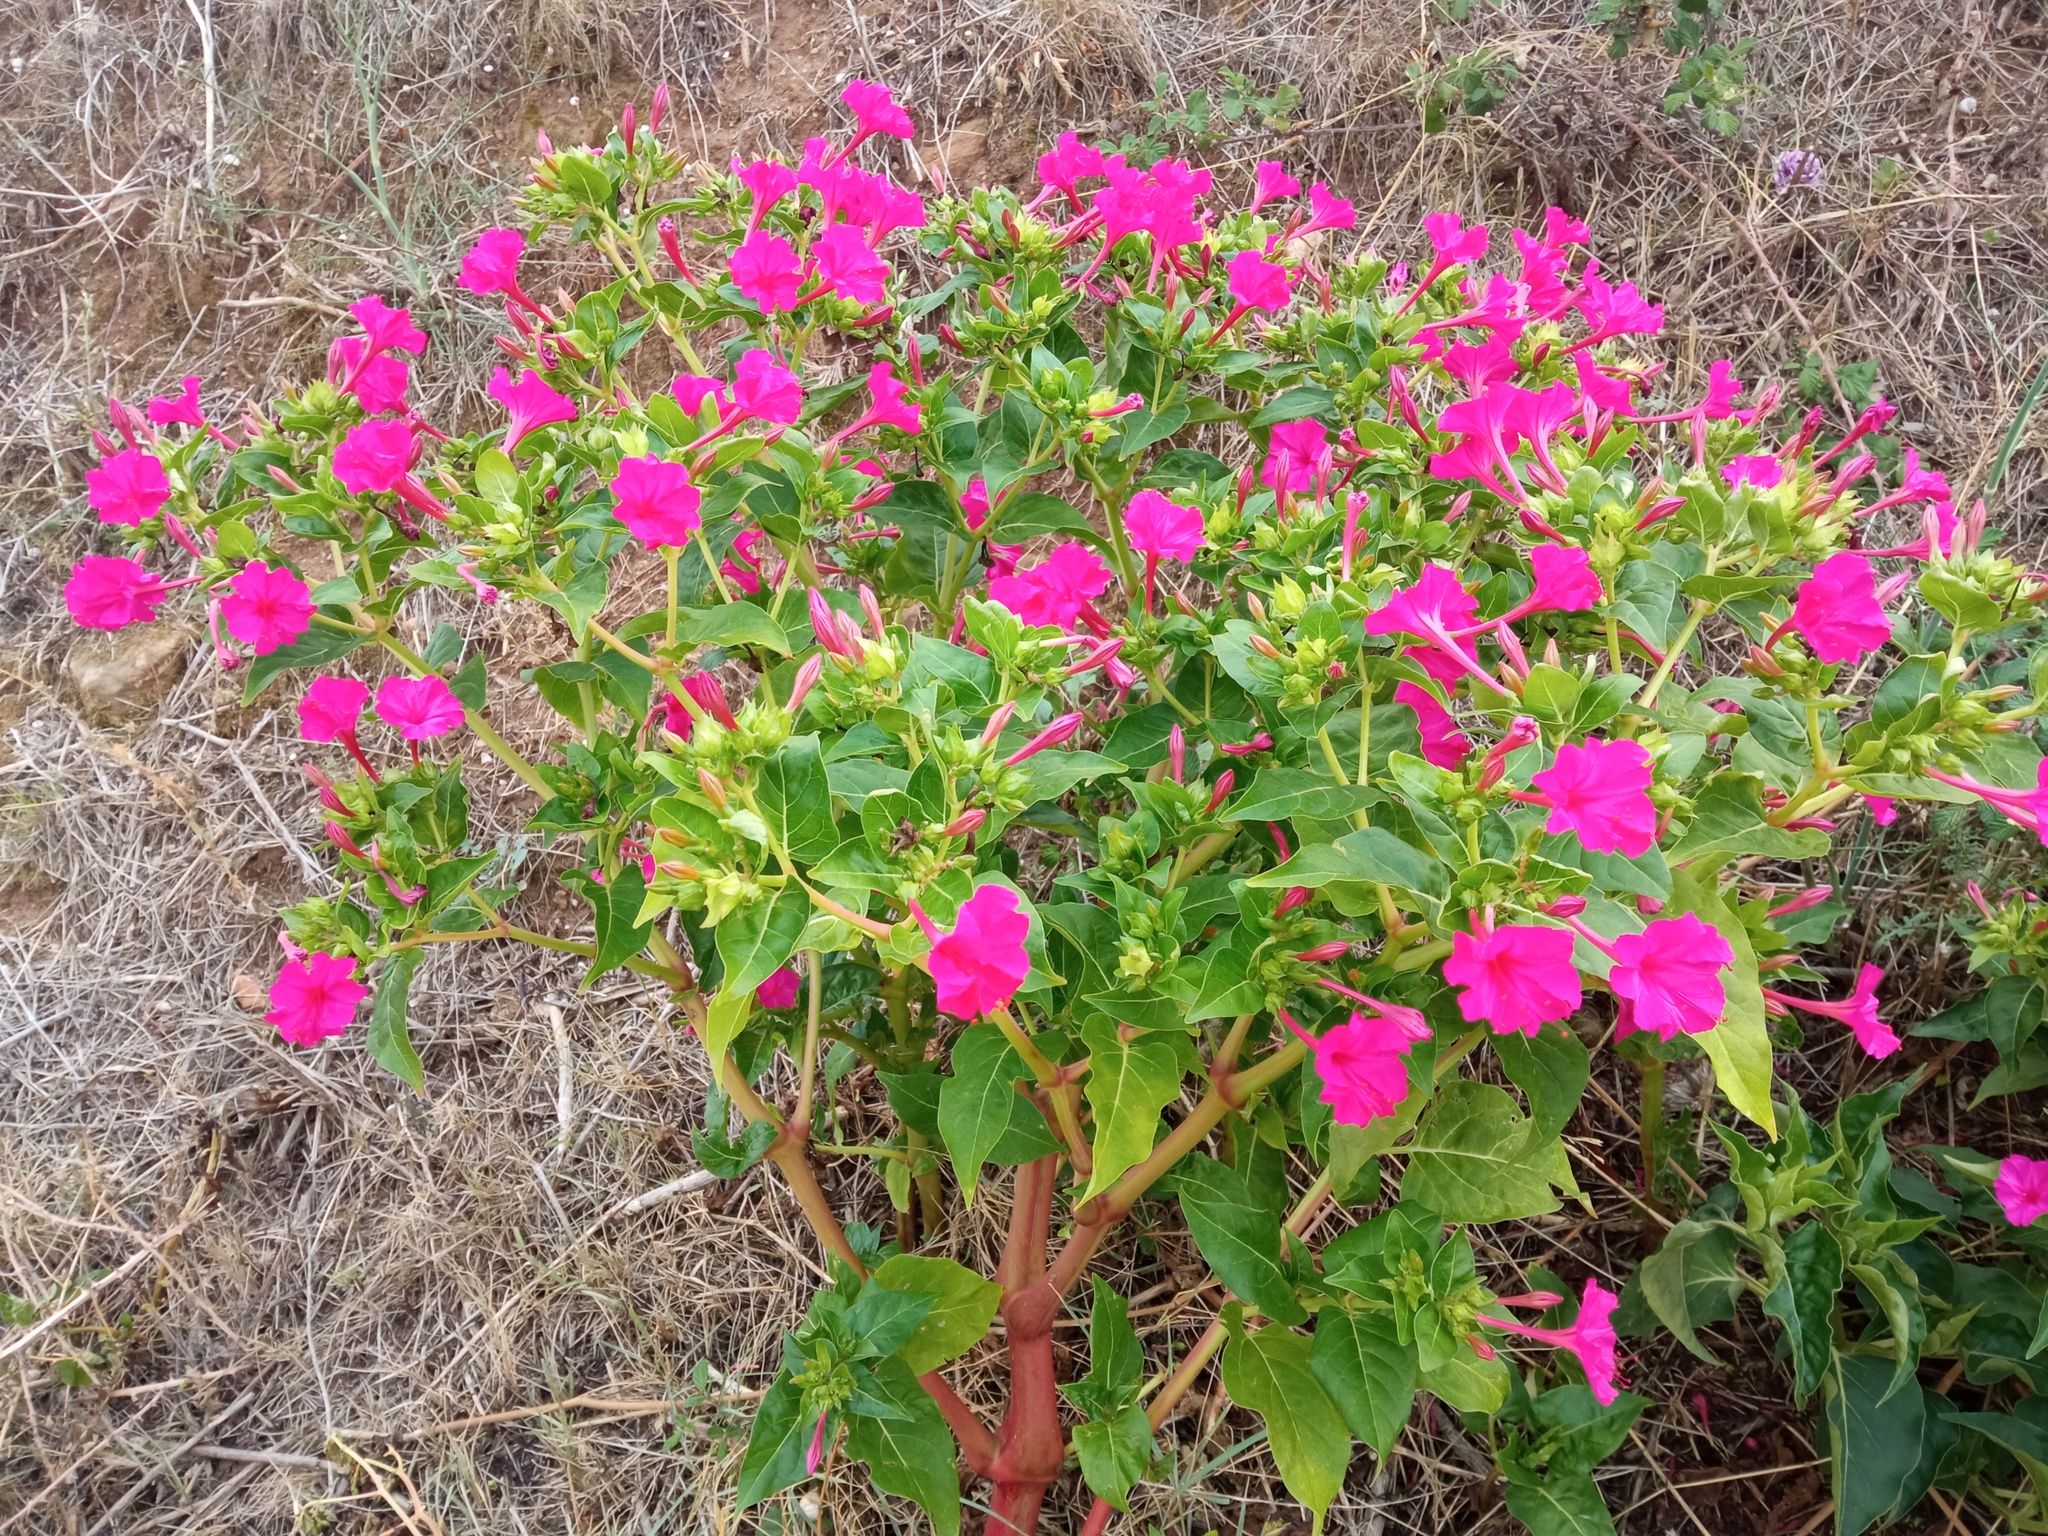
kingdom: Plantae
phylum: Tracheophyta
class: Magnoliopsida
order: Caryophyllales
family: Nyctaginaceae
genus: Mirabilis
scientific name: Mirabilis jalapa
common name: Marvel-of-peru
